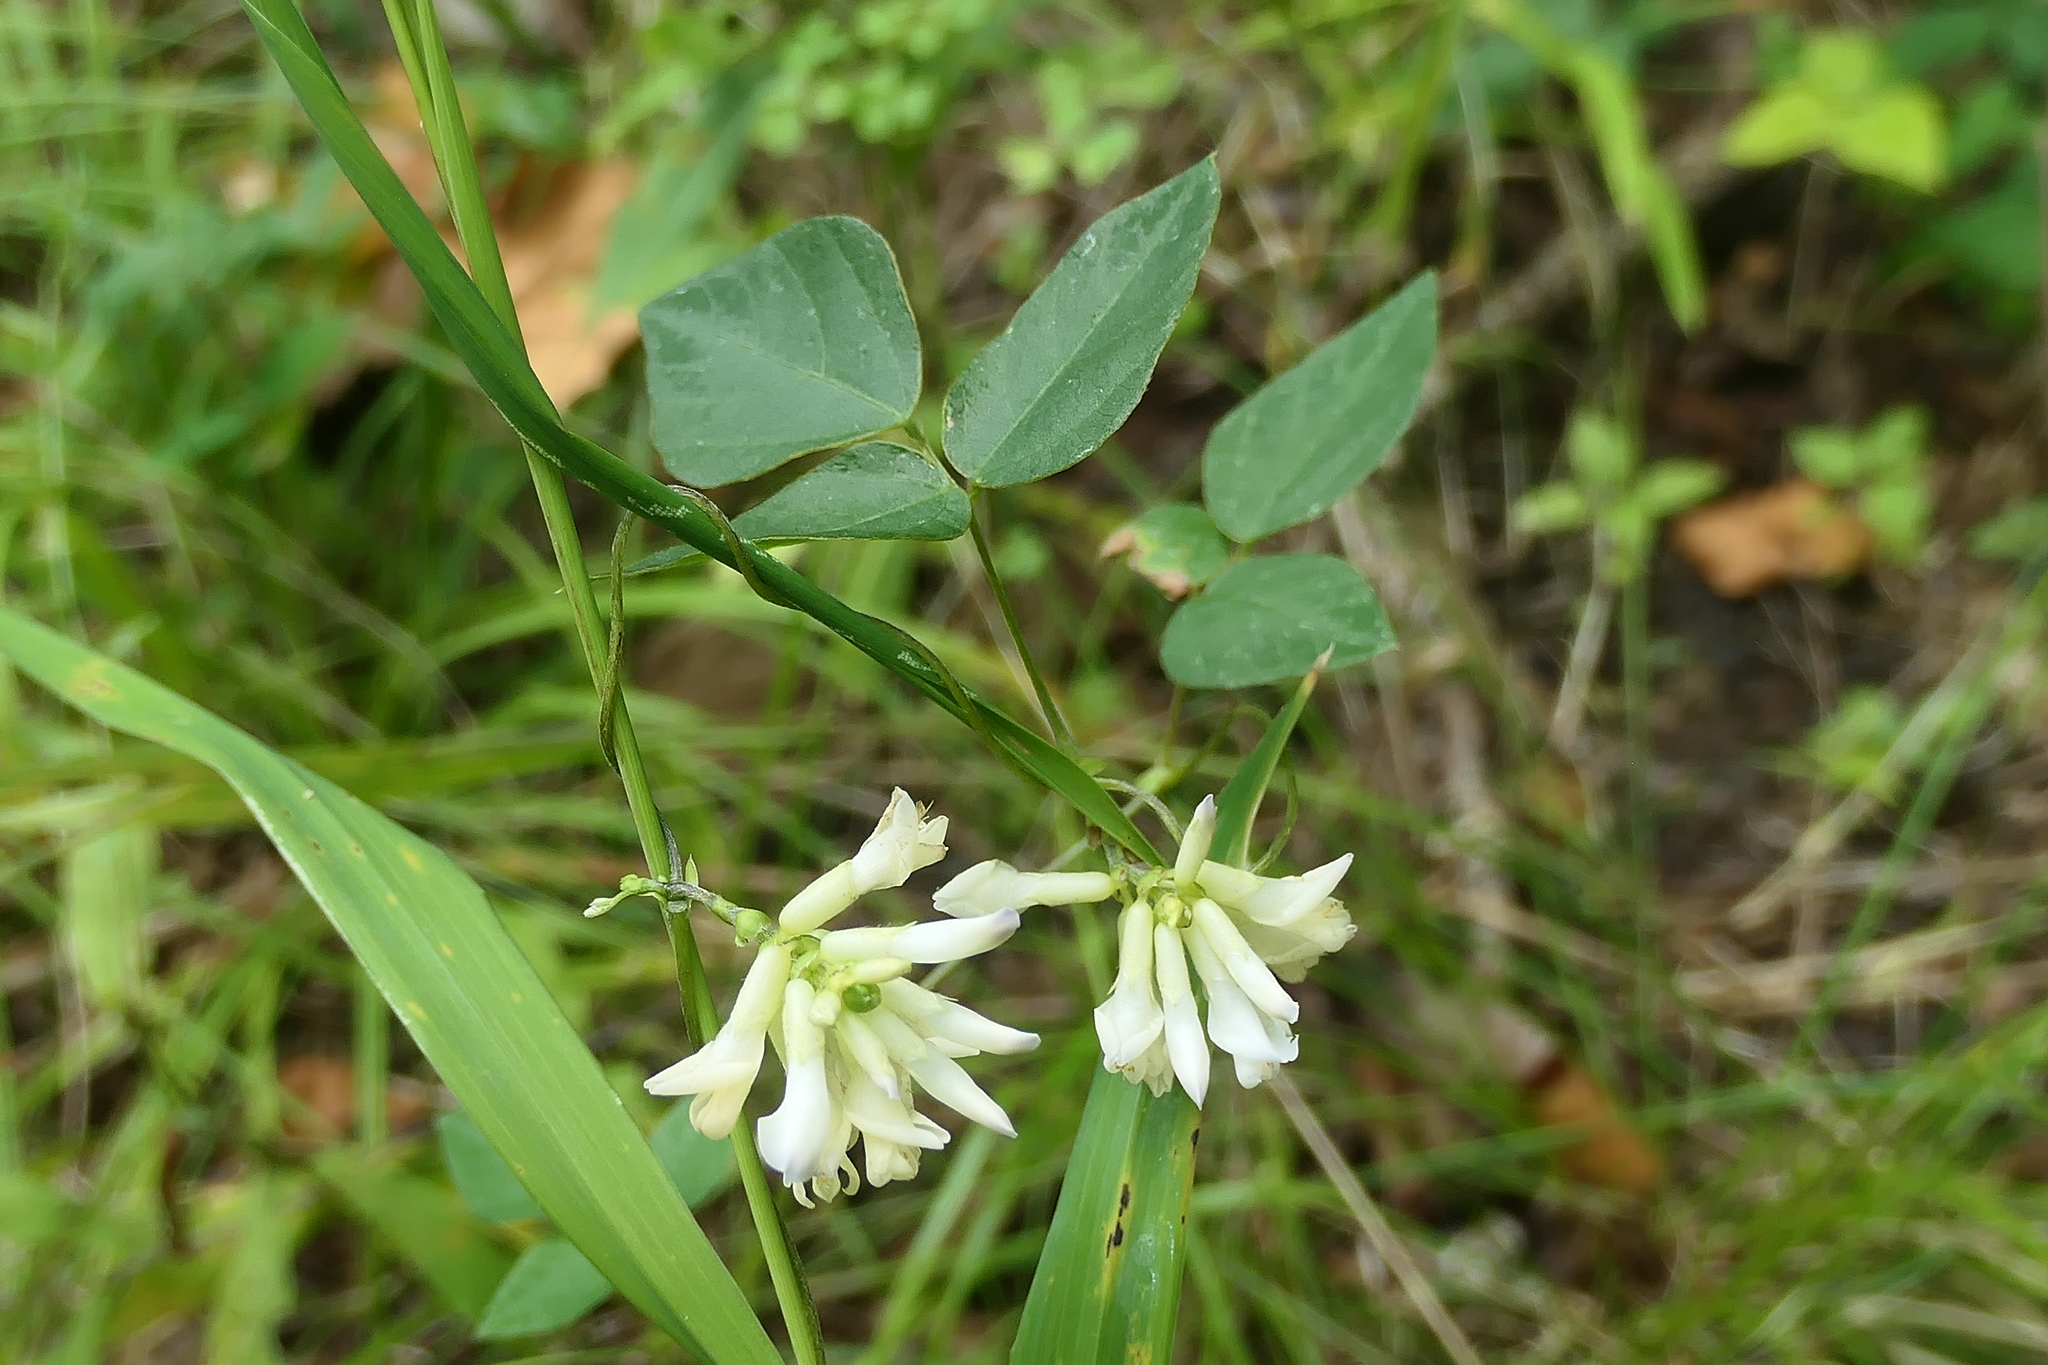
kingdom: Plantae
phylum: Tracheophyta
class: Magnoliopsida
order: Fabales
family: Fabaceae
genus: Amphicarpaea
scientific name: Amphicarpaea bracteata
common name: American hog peanut
